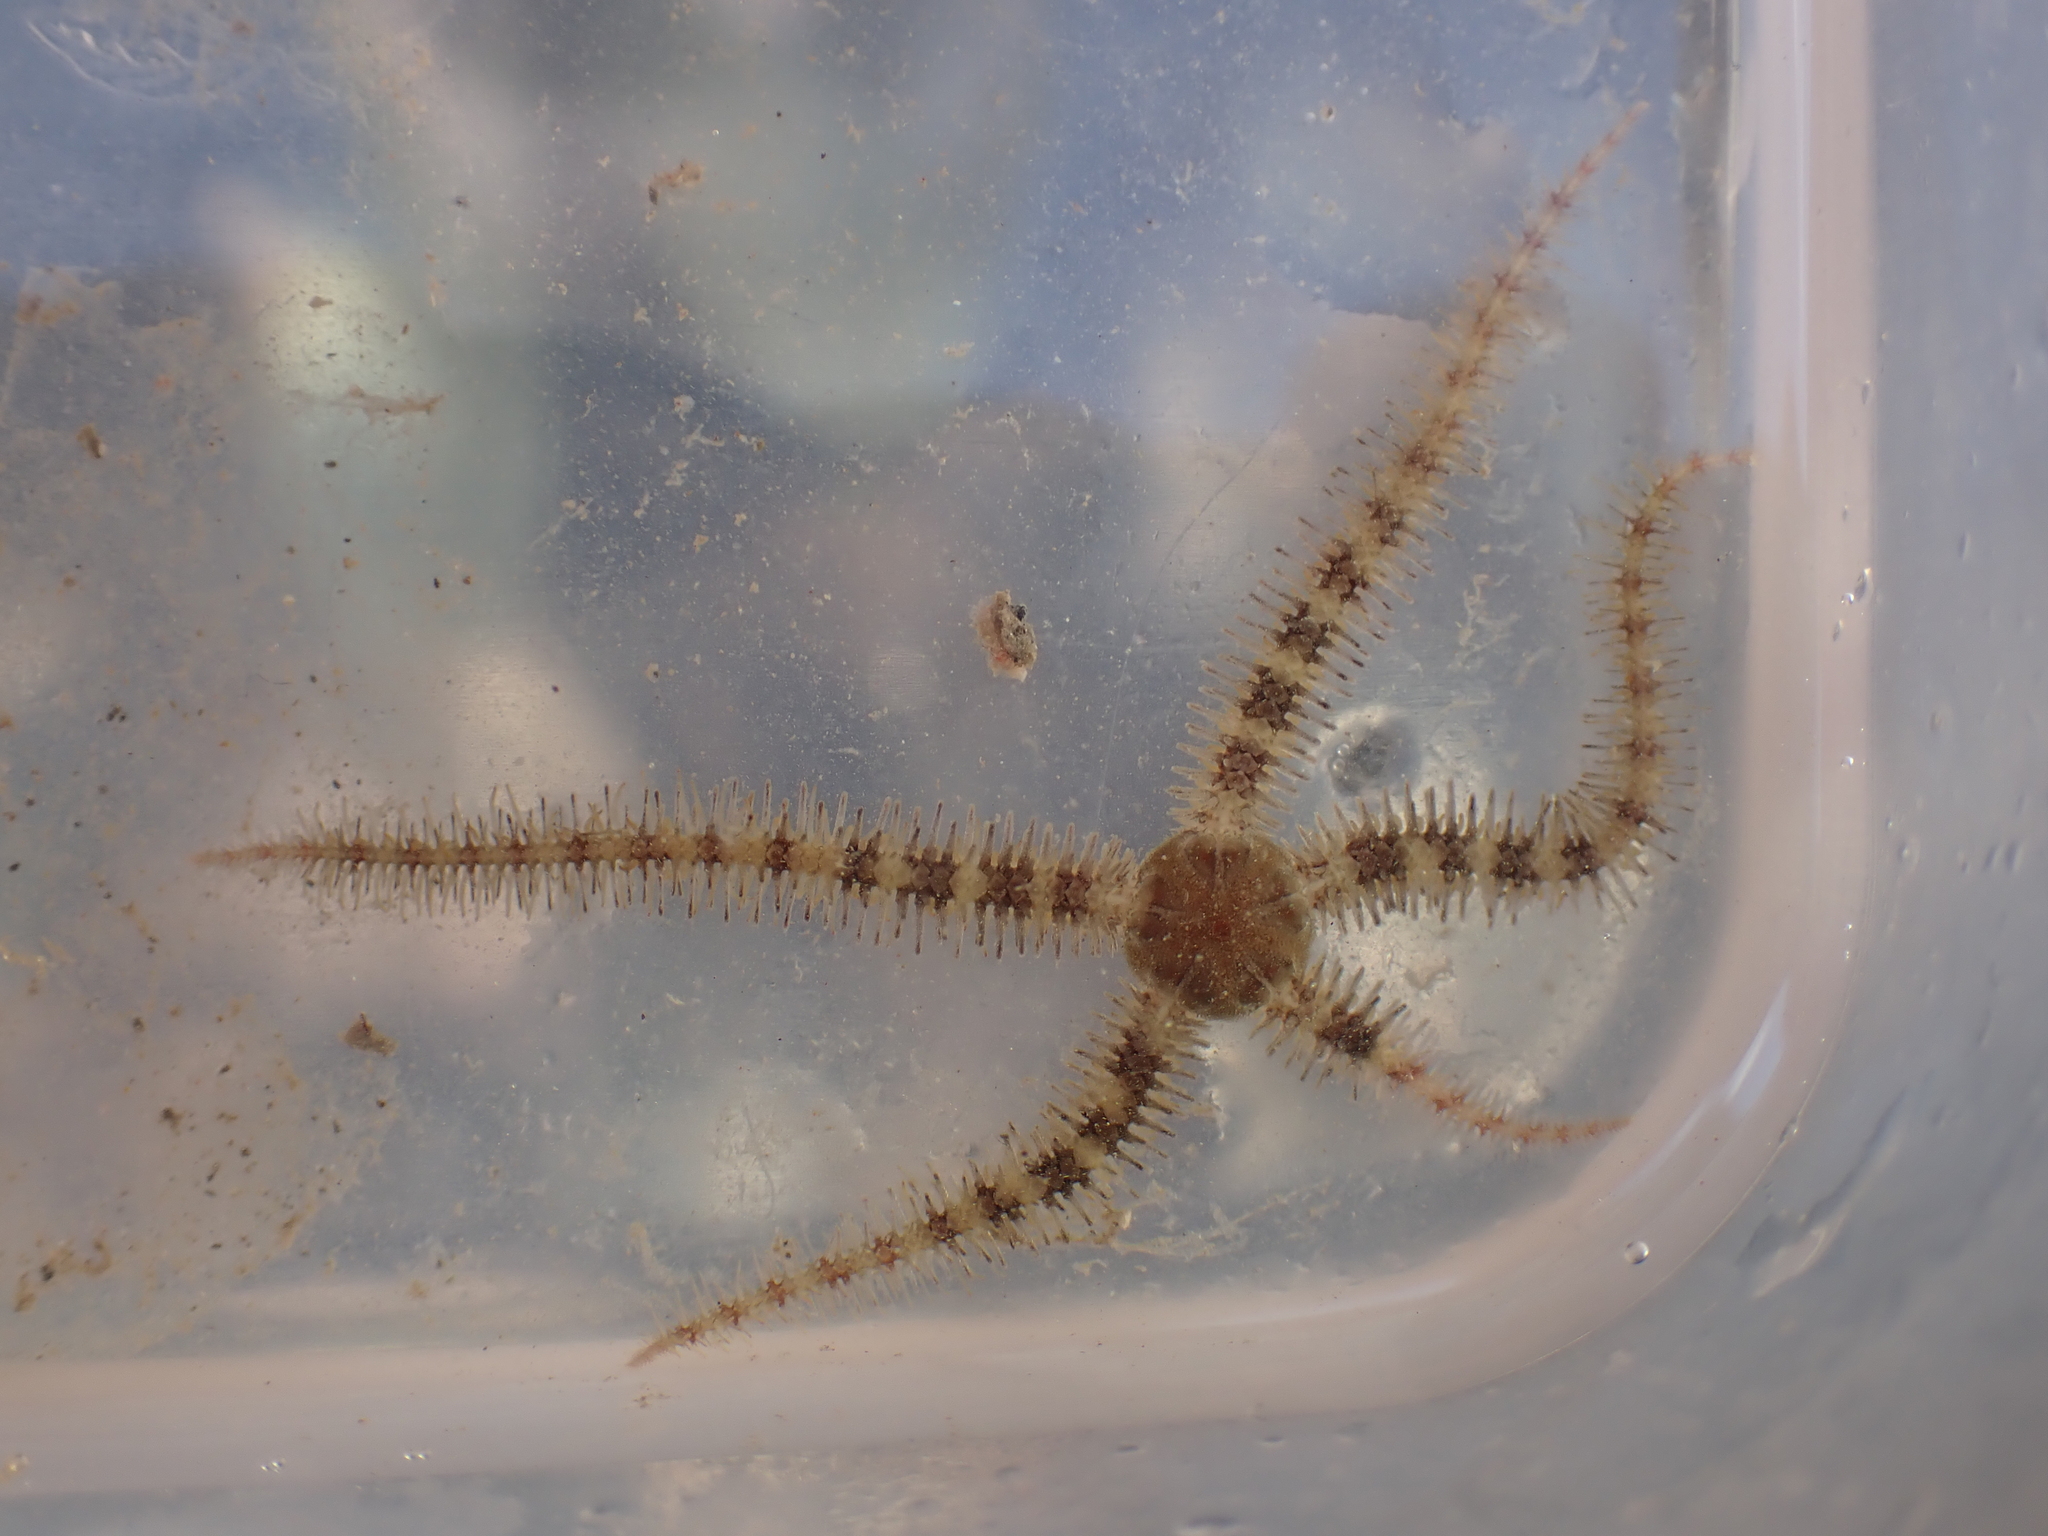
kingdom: Animalia
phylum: Echinodermata
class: Ophiuroidea
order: Amphilepidida
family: Ophiotrichidae
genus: Ophiothrix
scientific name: Ophiothrix fragilis
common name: Common brittlestar
